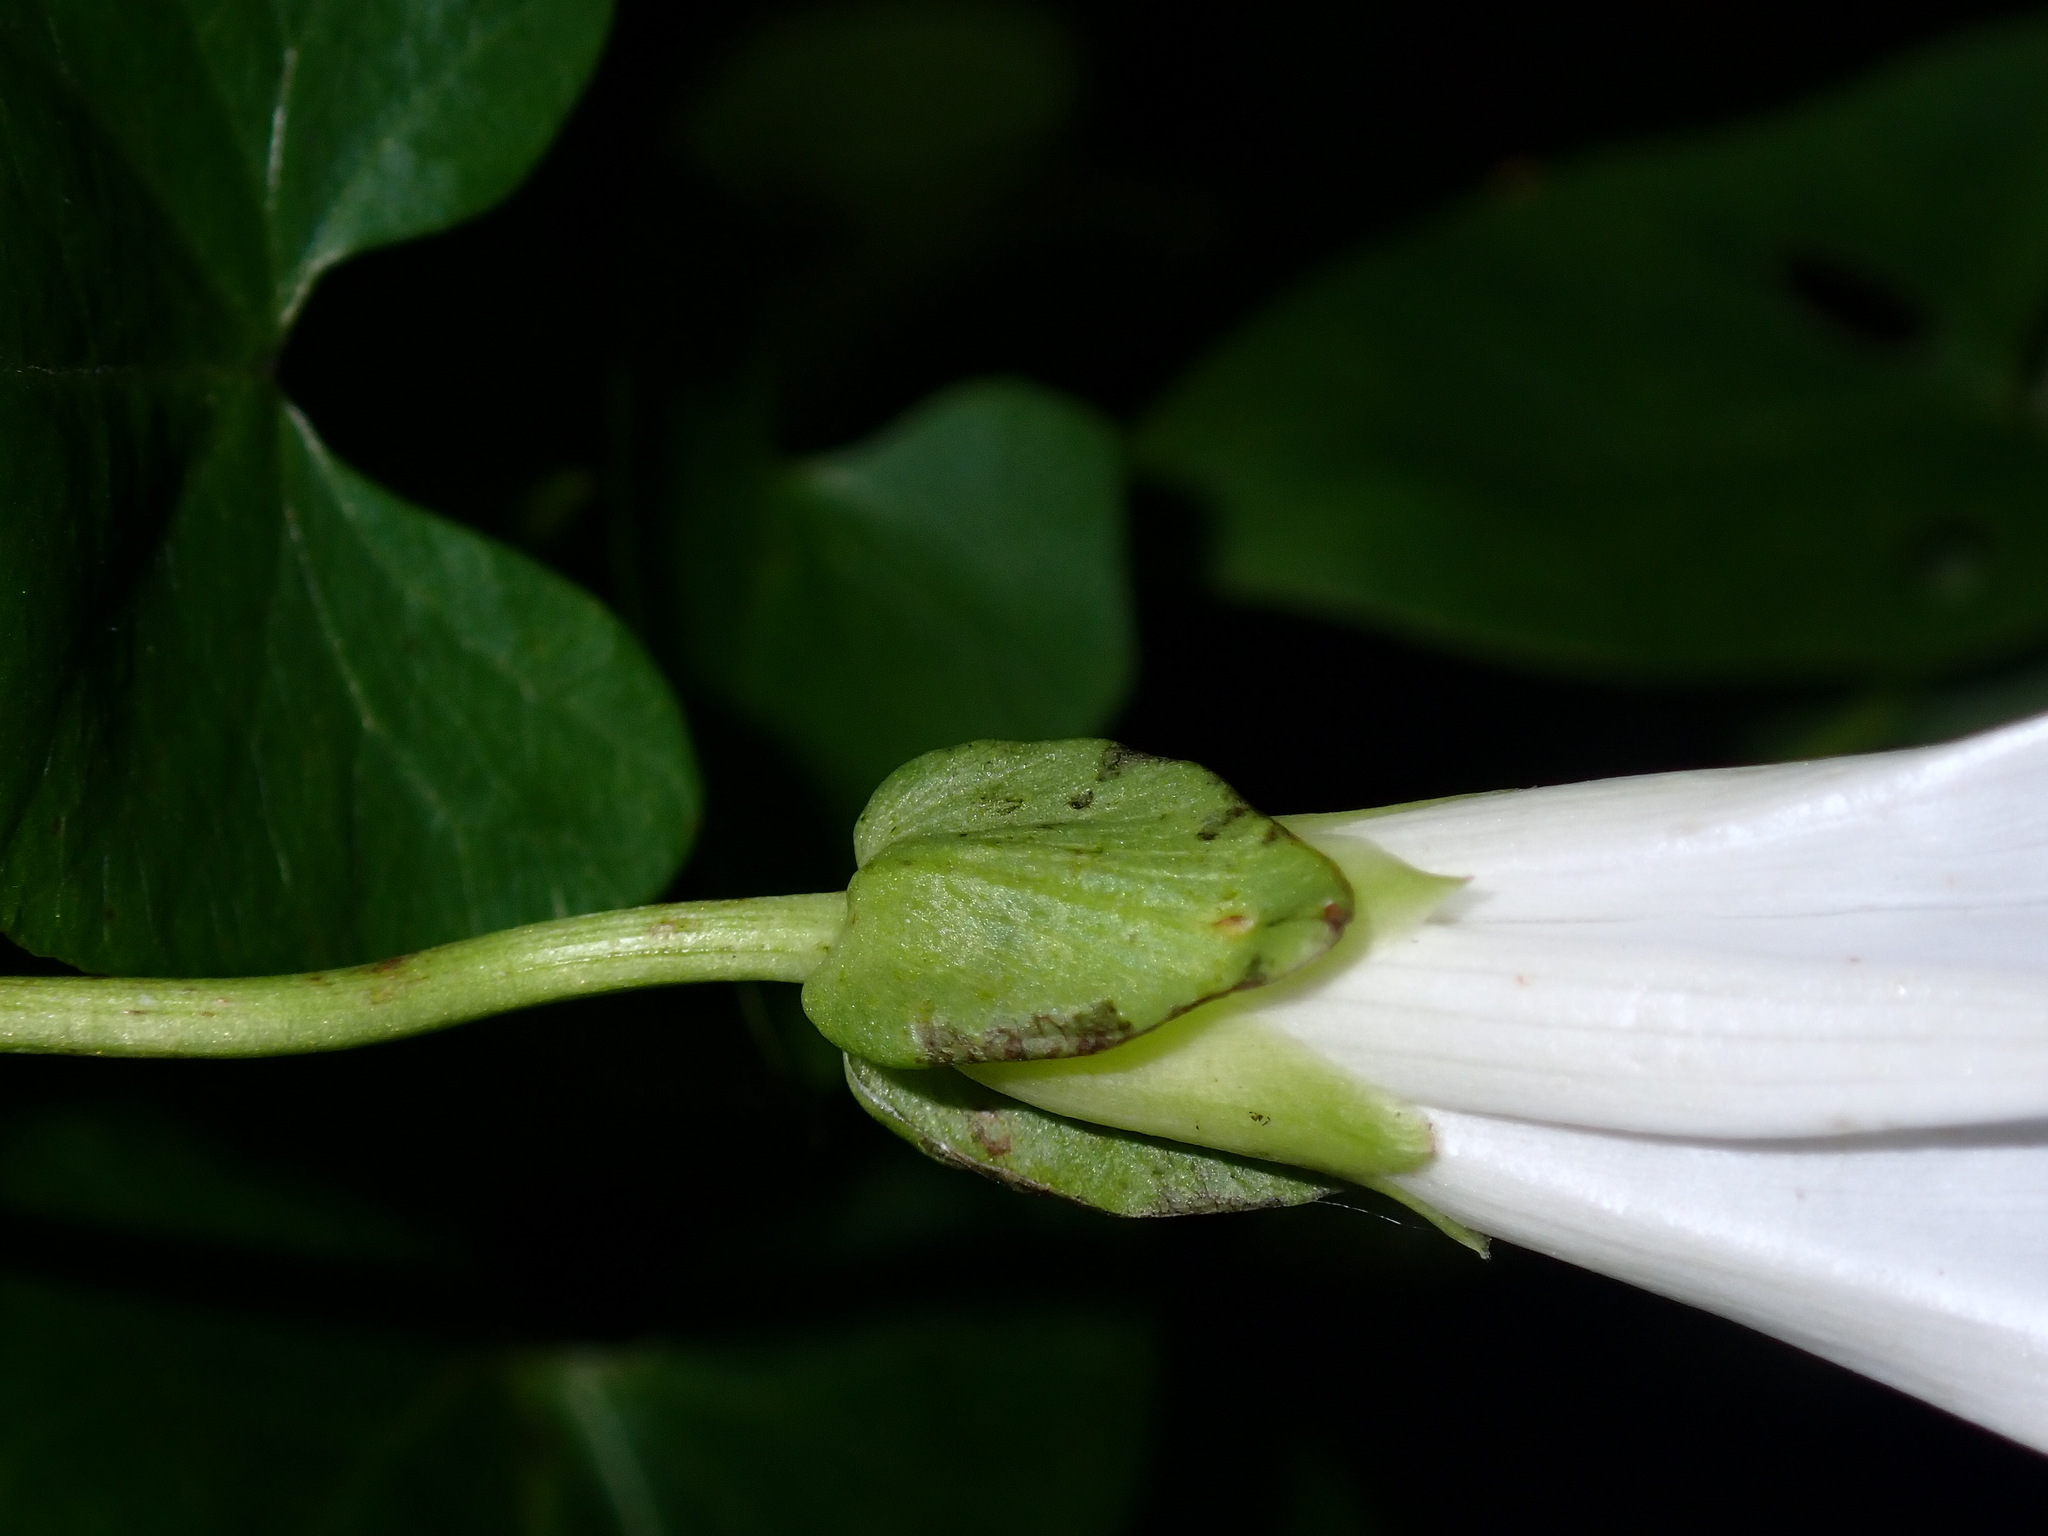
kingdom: Plantae
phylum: Tracheophyta
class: Magnoliopsida
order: Solanales
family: Convolvulaceae
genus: Calystegia
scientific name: Calystegia sepium
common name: Hedge bindweed
